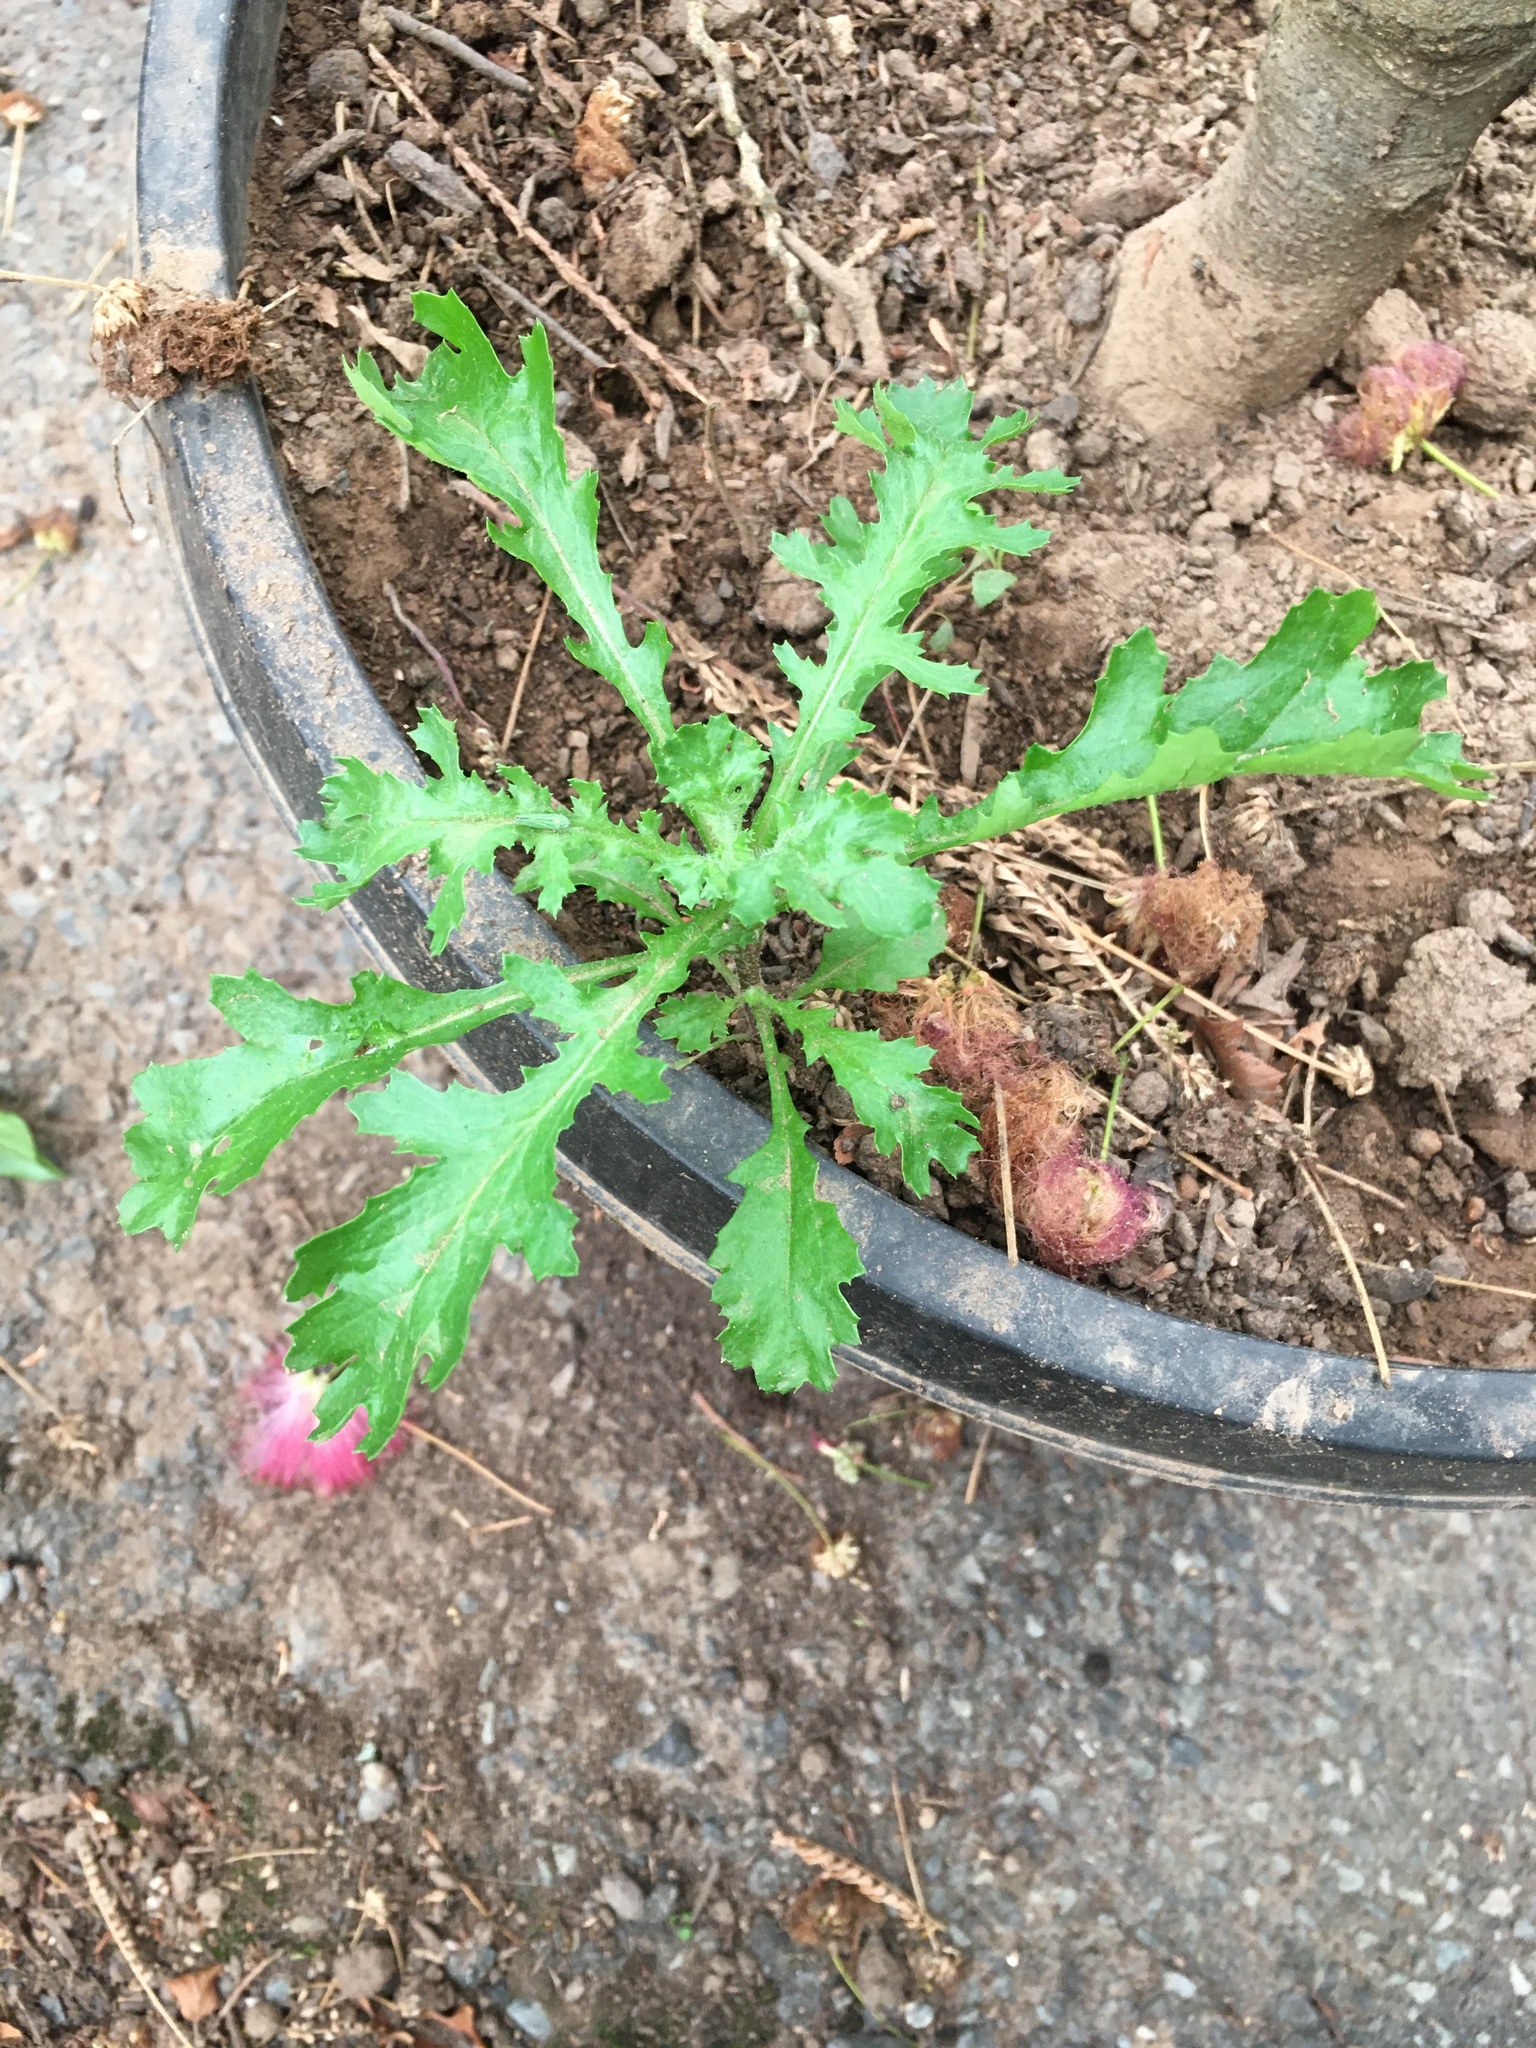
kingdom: Plantae
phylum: Tracheophyta
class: Magnoliopsida
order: Asterales
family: Asteraceae
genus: Senecio
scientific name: Senecio vulgaris
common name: Old-man-in-the-spring
